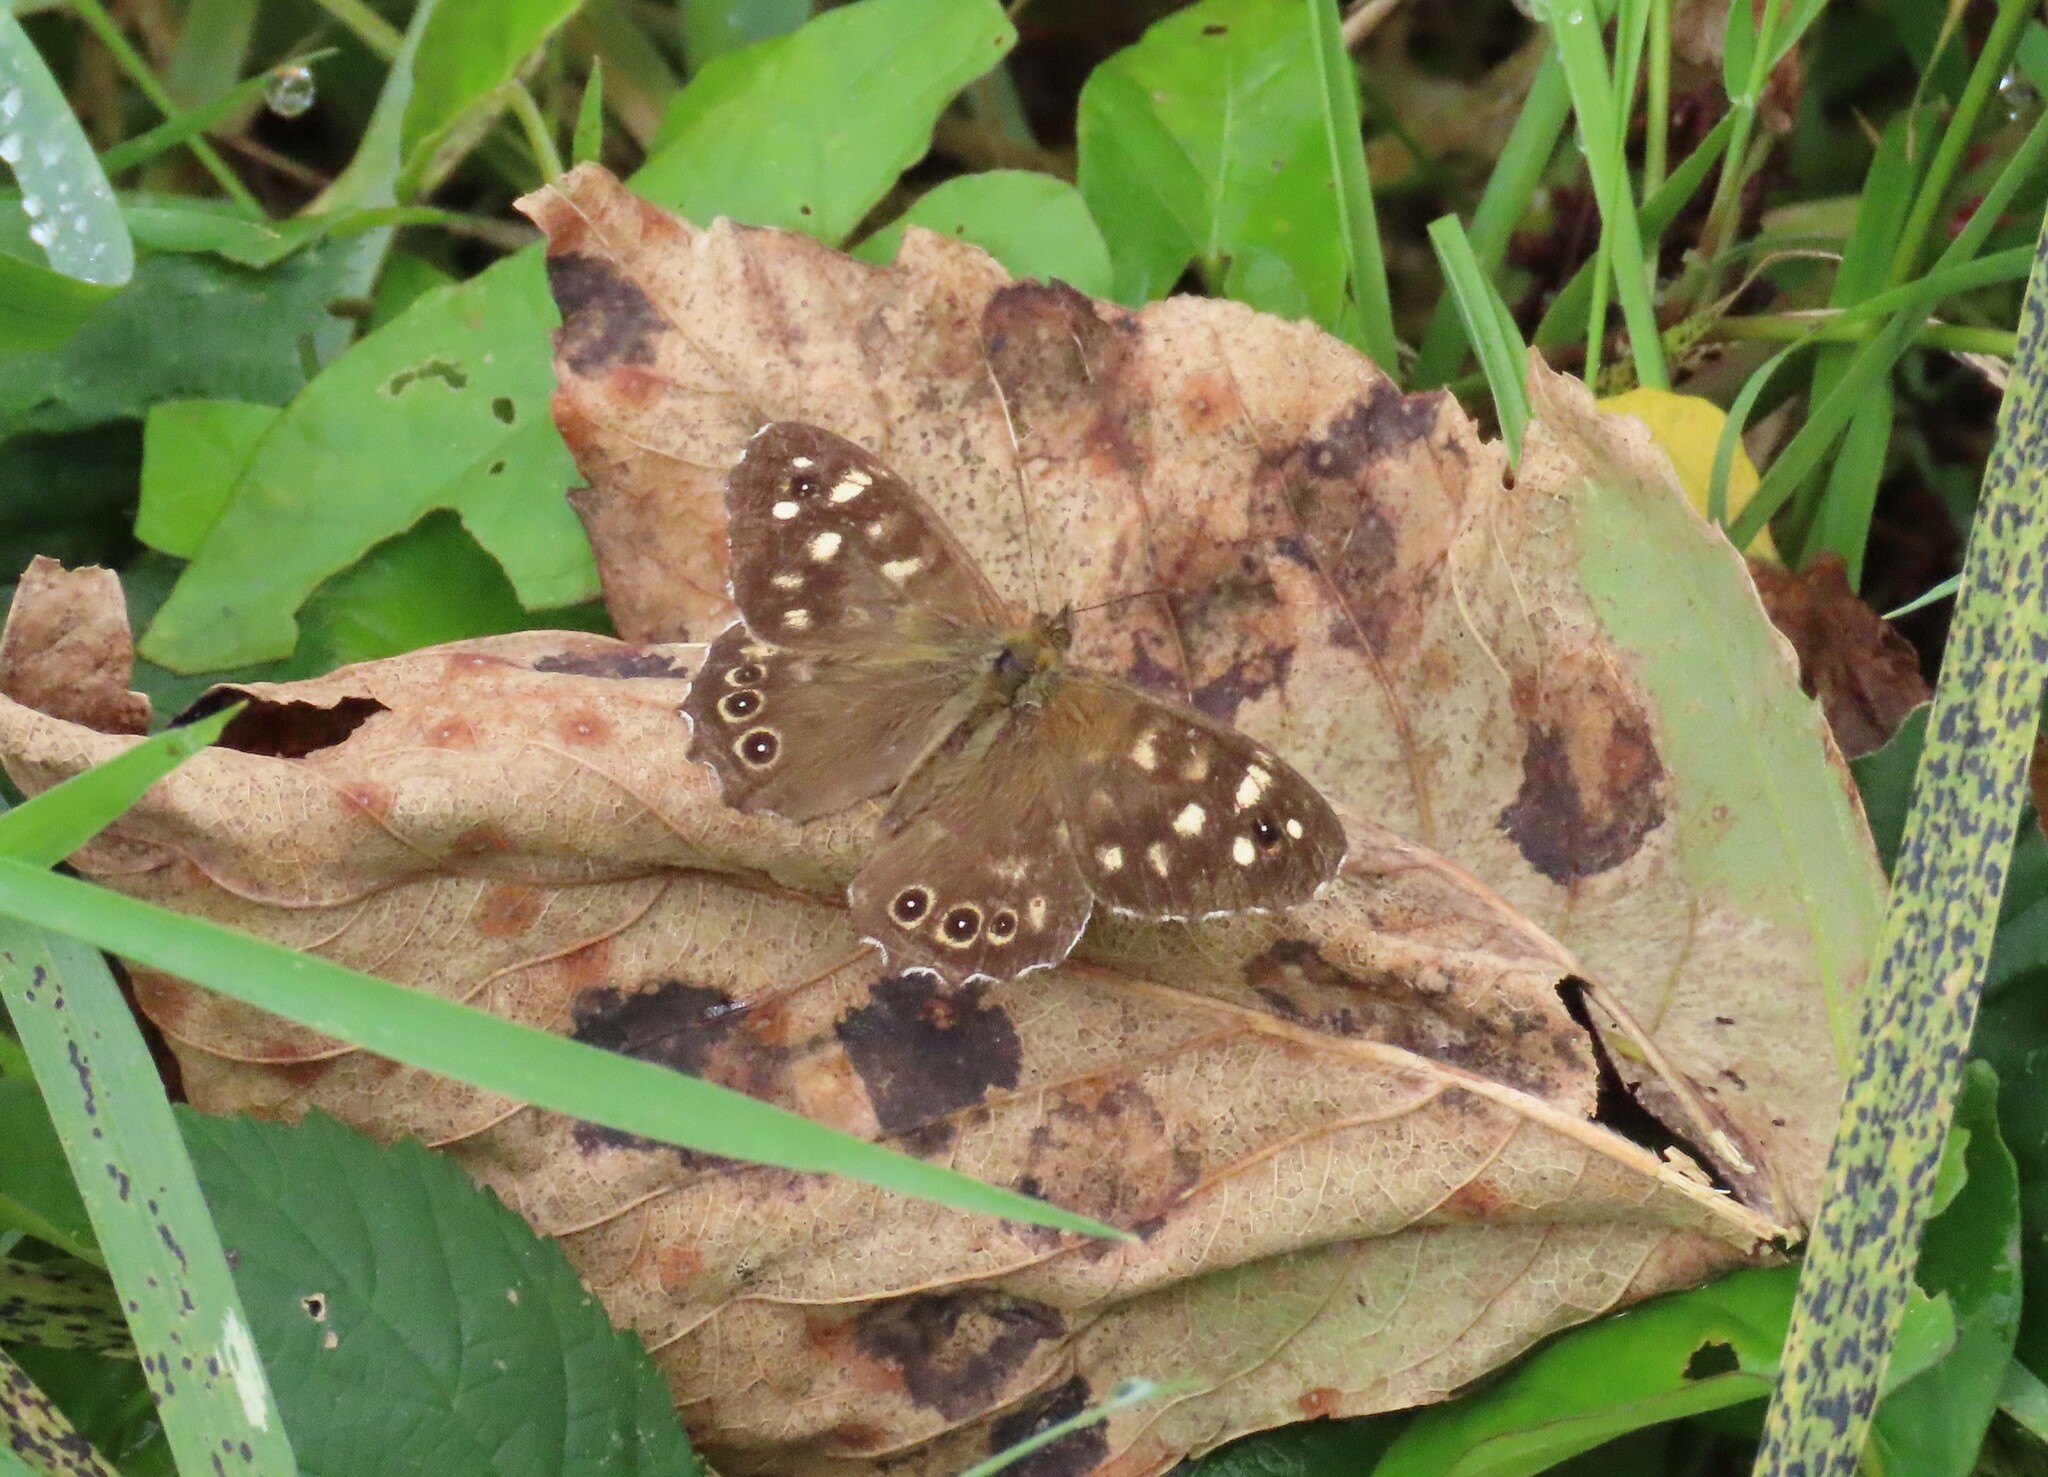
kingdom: Animalia
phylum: Arthropoda
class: Insecta
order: Lepidoptera
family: Nymphalidae
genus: Pararge
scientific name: Pararge aegeria
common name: Speckled wood
